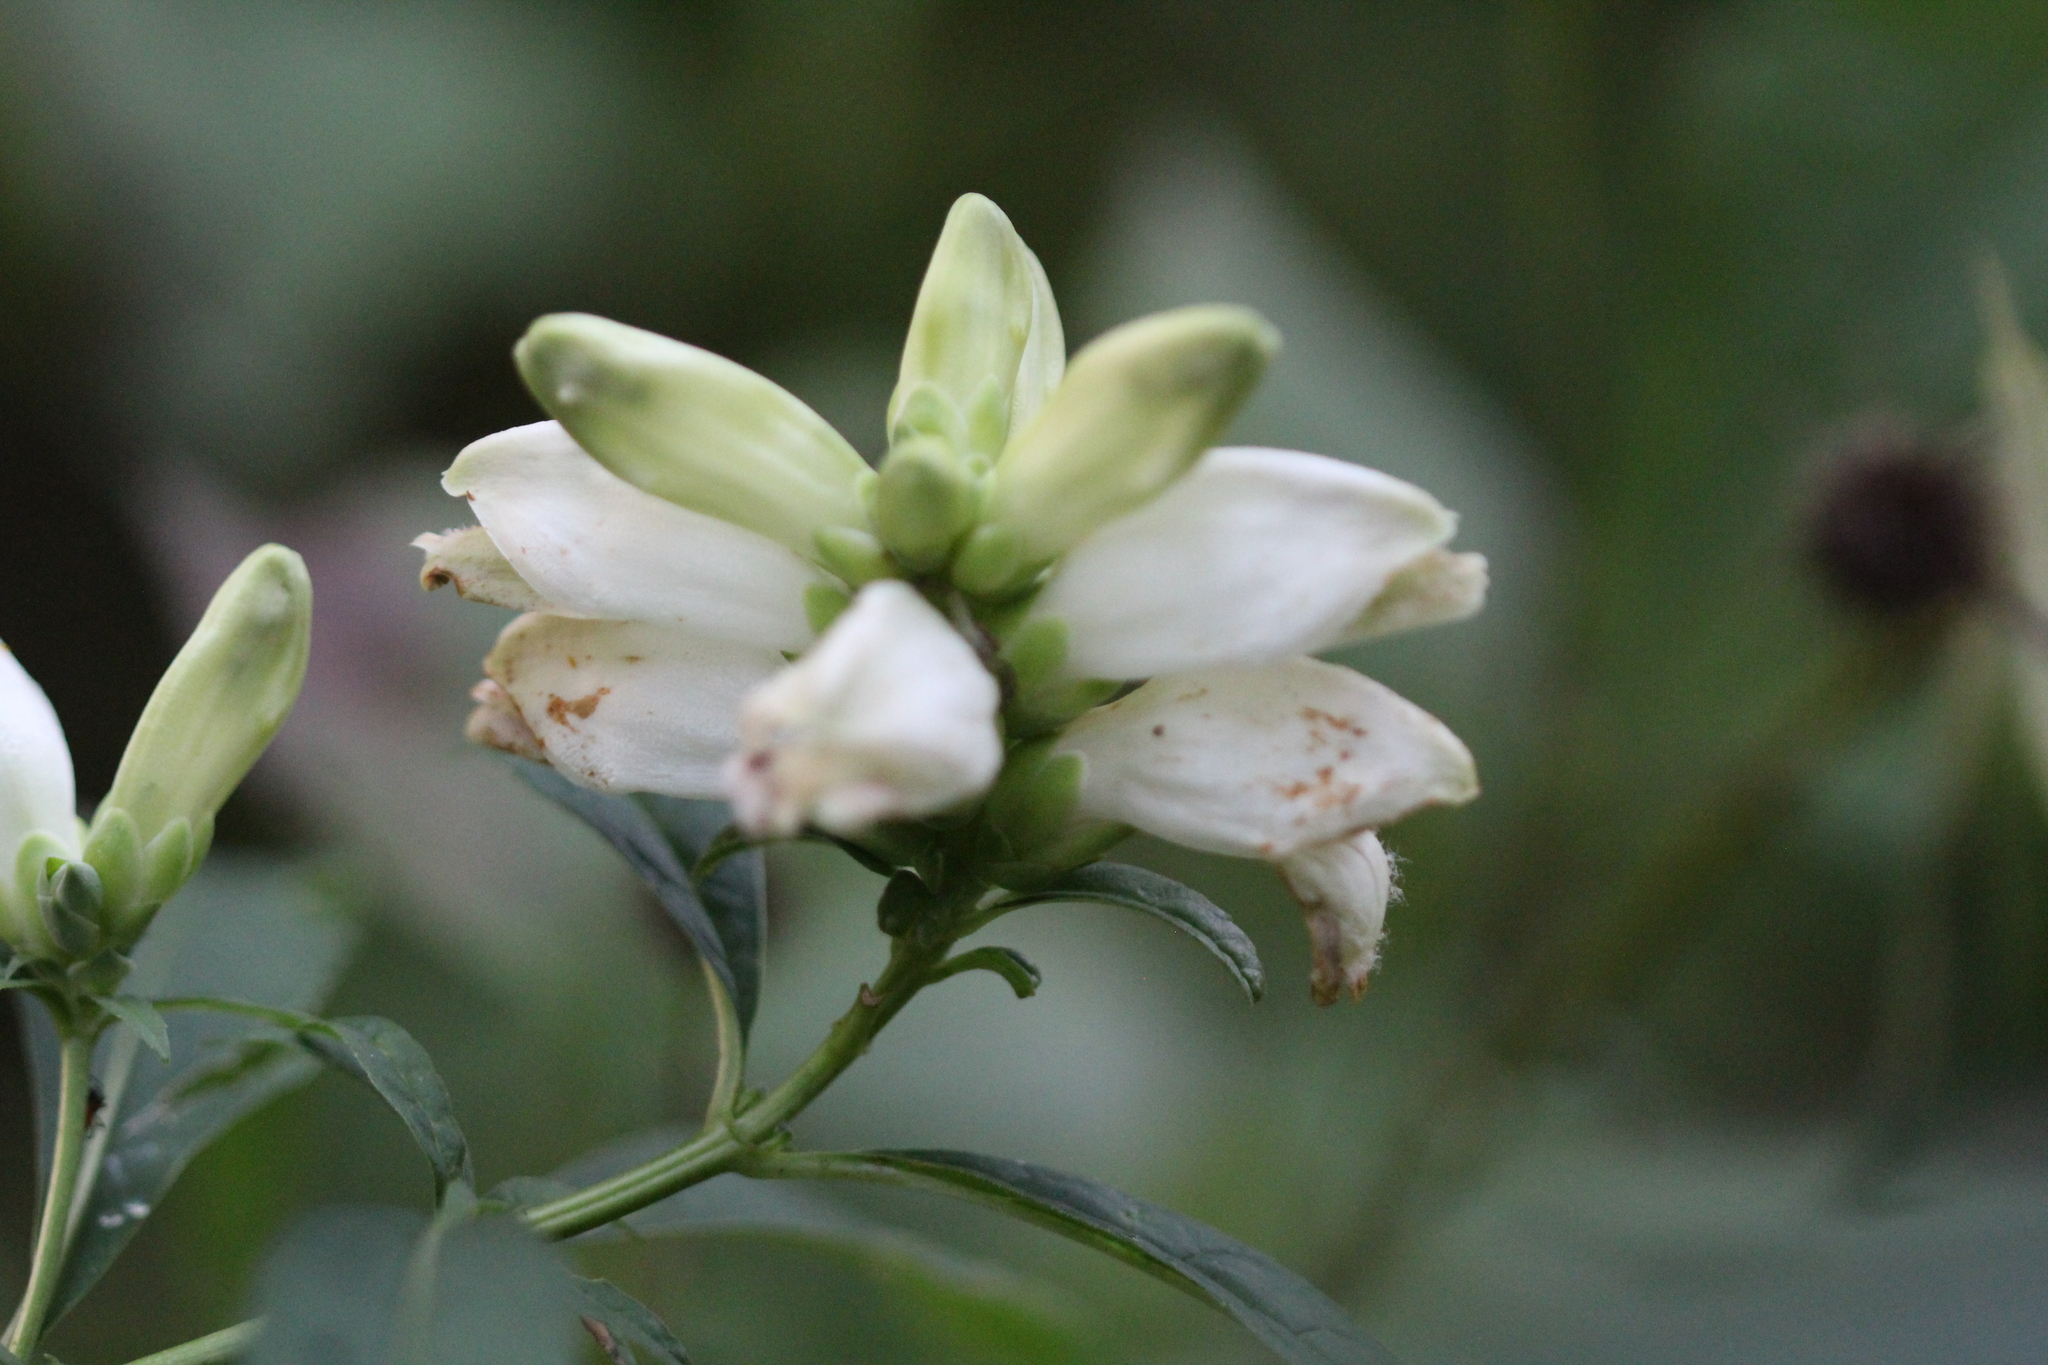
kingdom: Plantae
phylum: Tracheophyta
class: Magnoliopsida
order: Lamiales
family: Plantaginaceae
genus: Chelone
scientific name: Chelone glabra
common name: Snakehead
